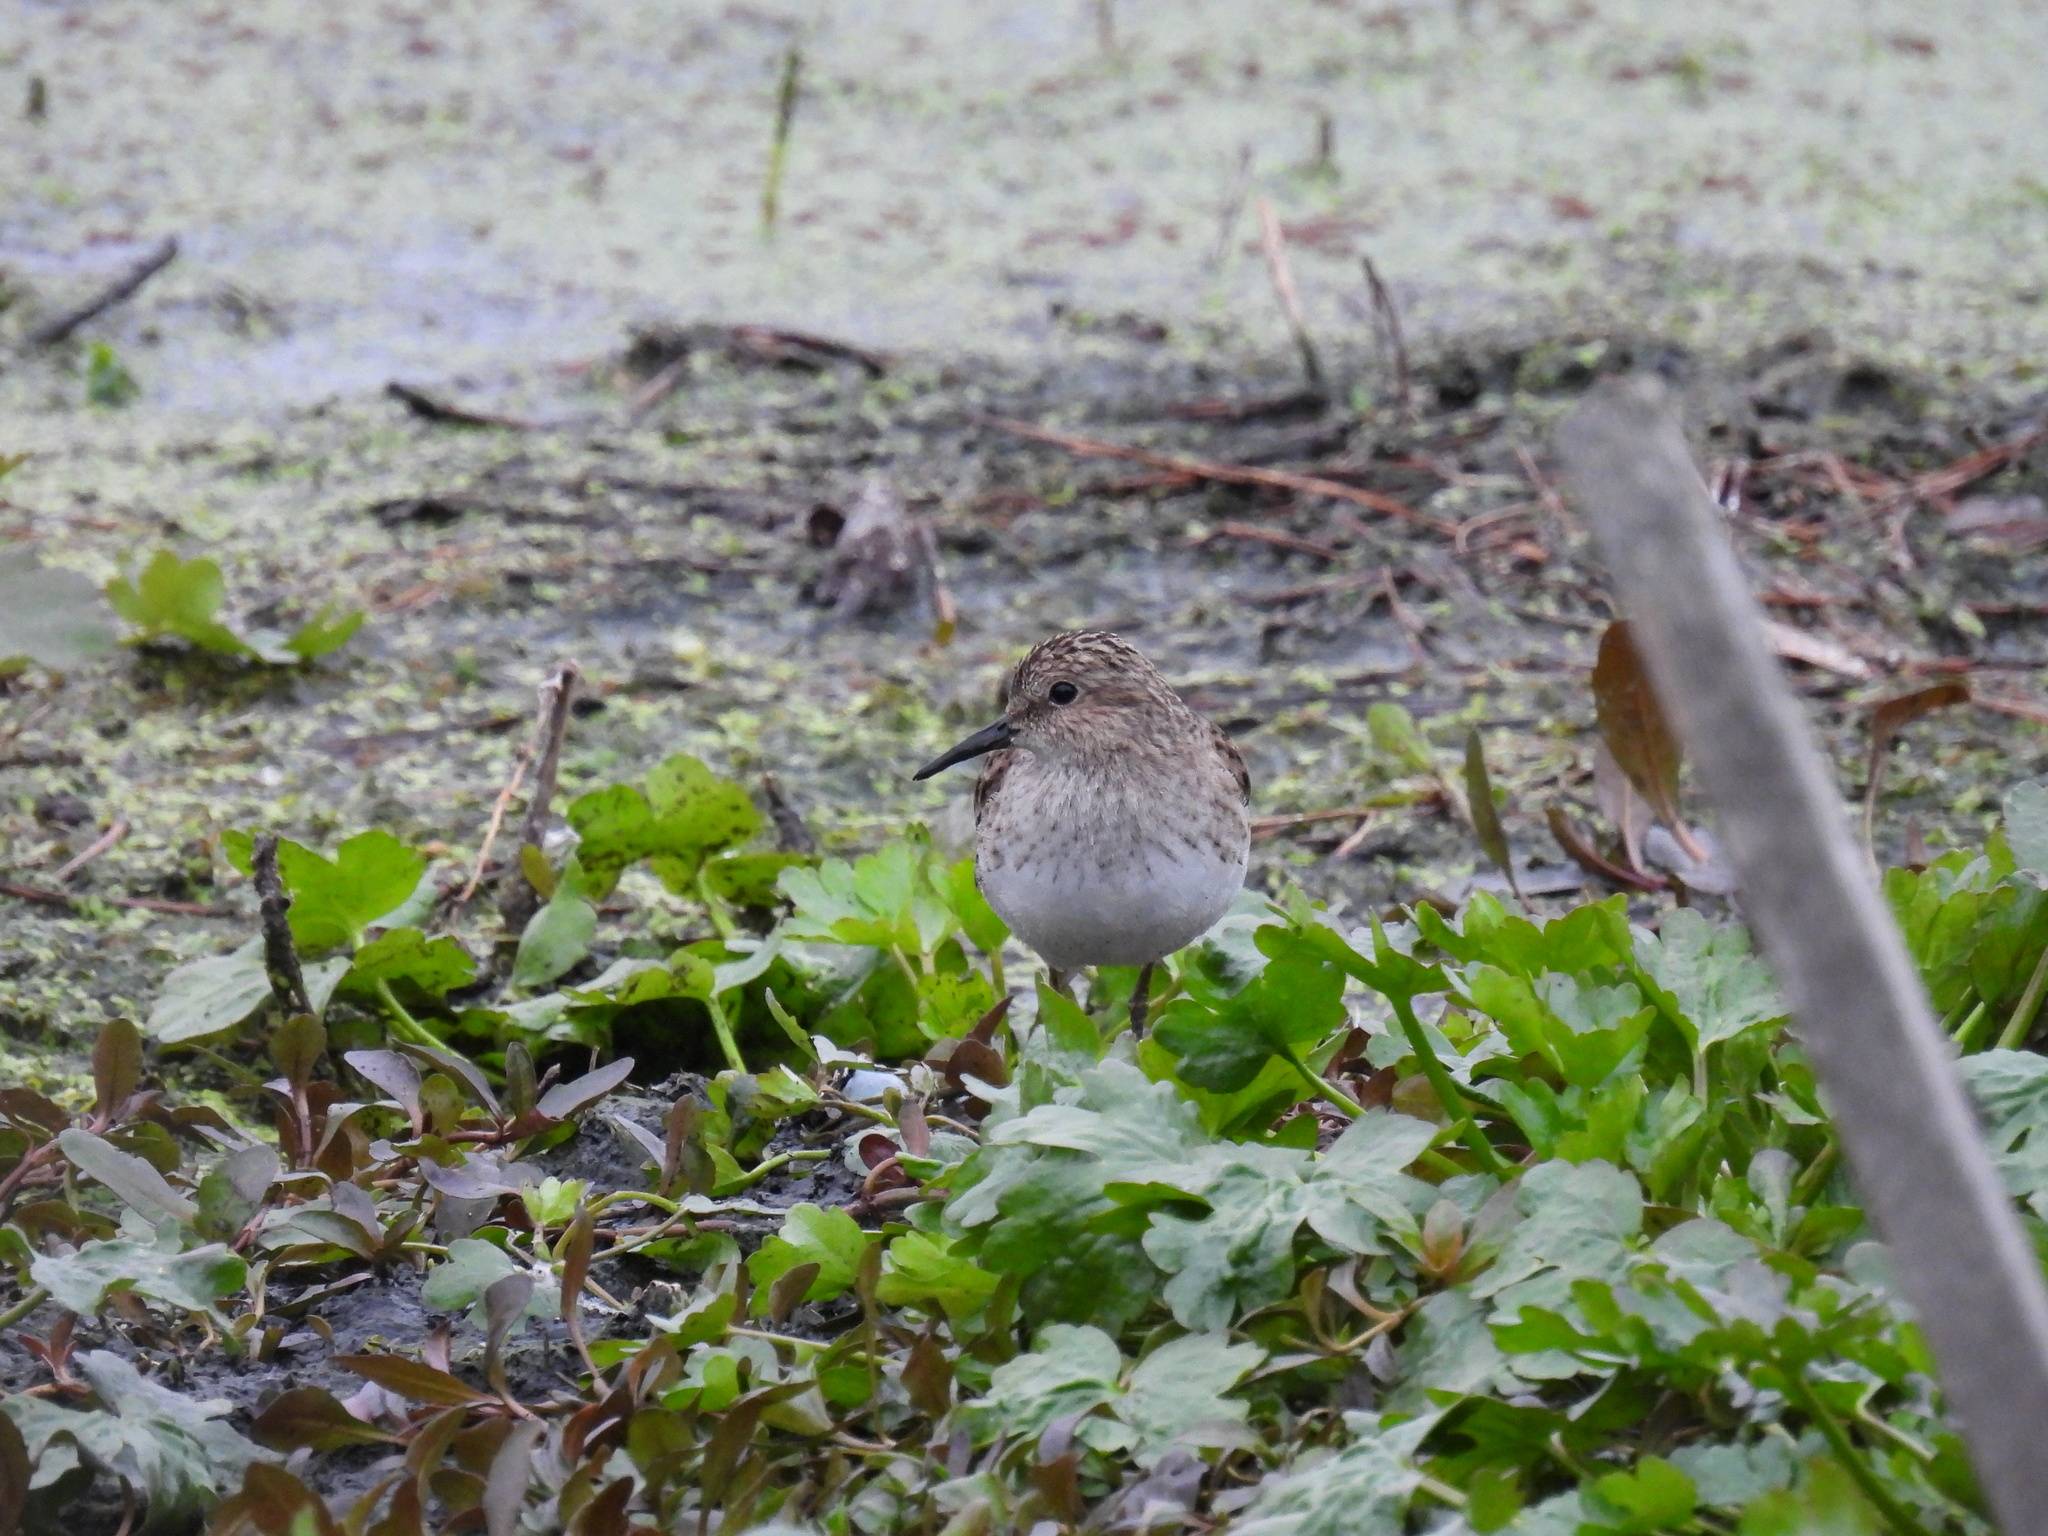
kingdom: Animalia
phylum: Chordata
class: Aves
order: Charadriiformes
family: Scolopacidae
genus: Calidris
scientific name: Calidris minutilla
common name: Least sandpiper
